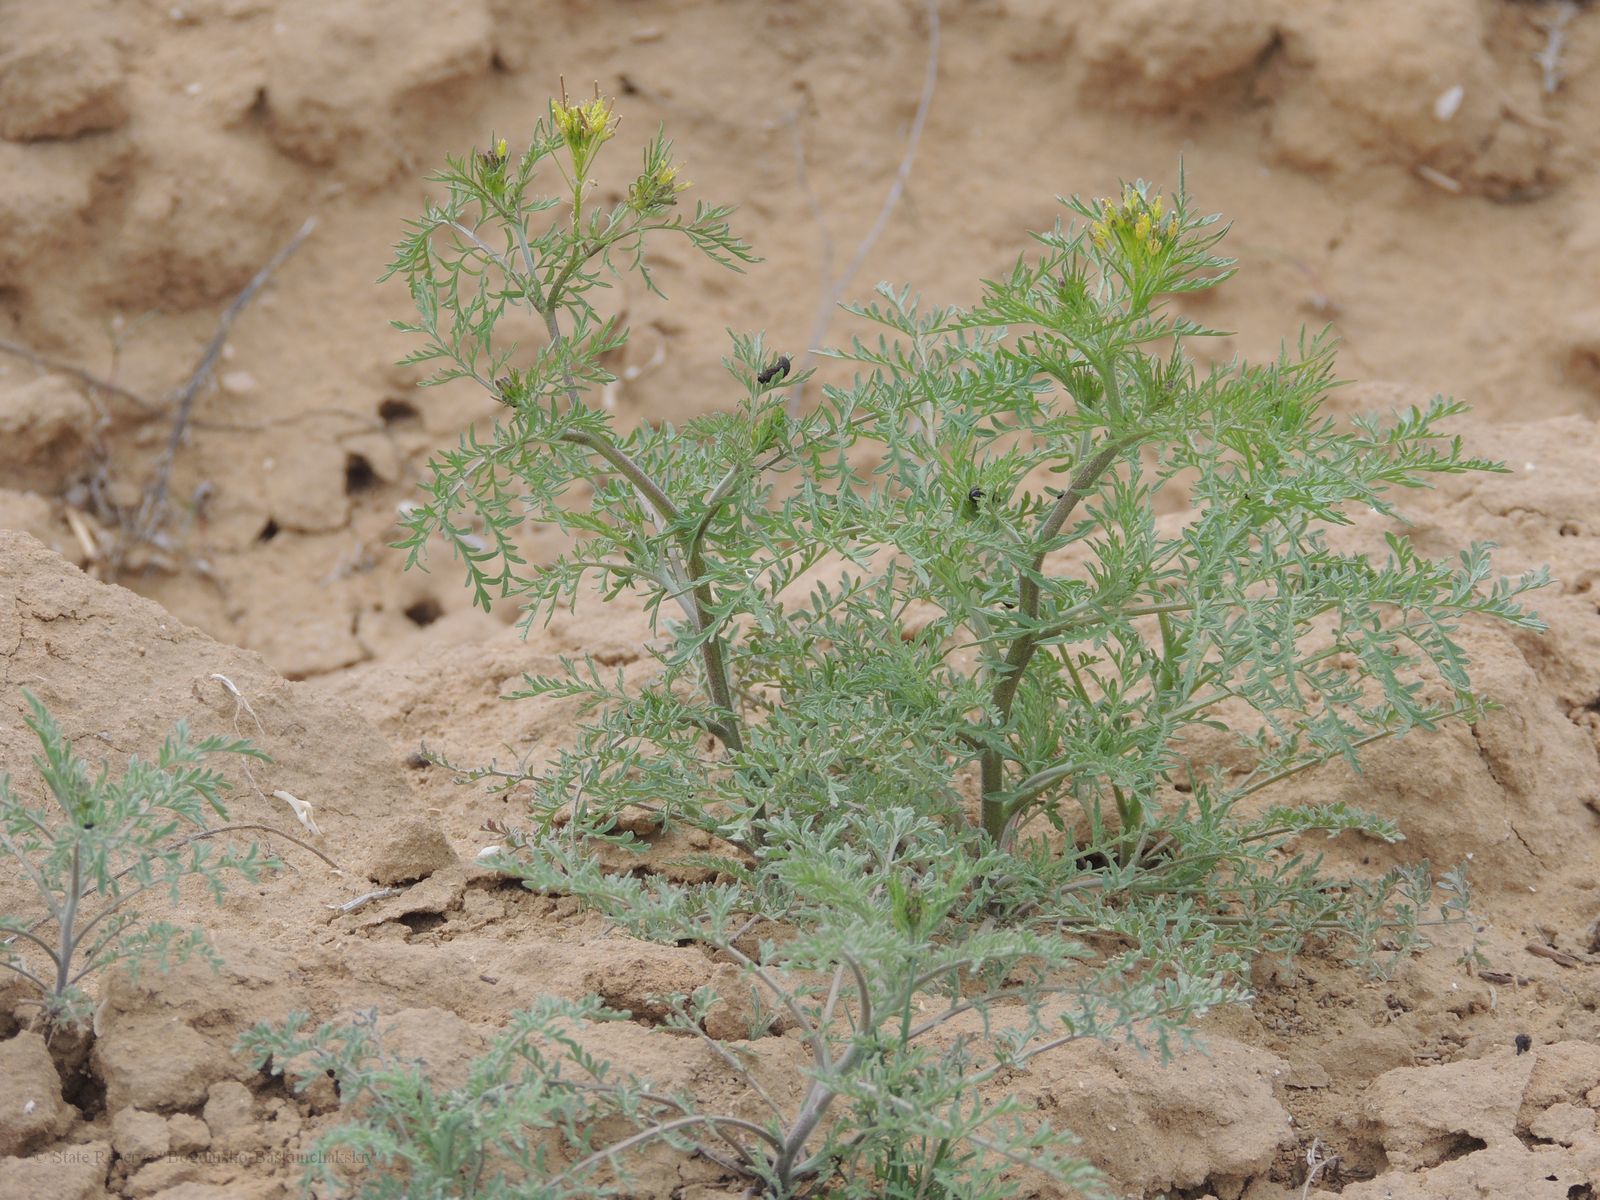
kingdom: Plantae
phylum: Tracheophyta
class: Magnoliopsida
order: Brassicales
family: Brassicaceae
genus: Descurainia
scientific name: Descurainia sophia
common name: Flixweed
